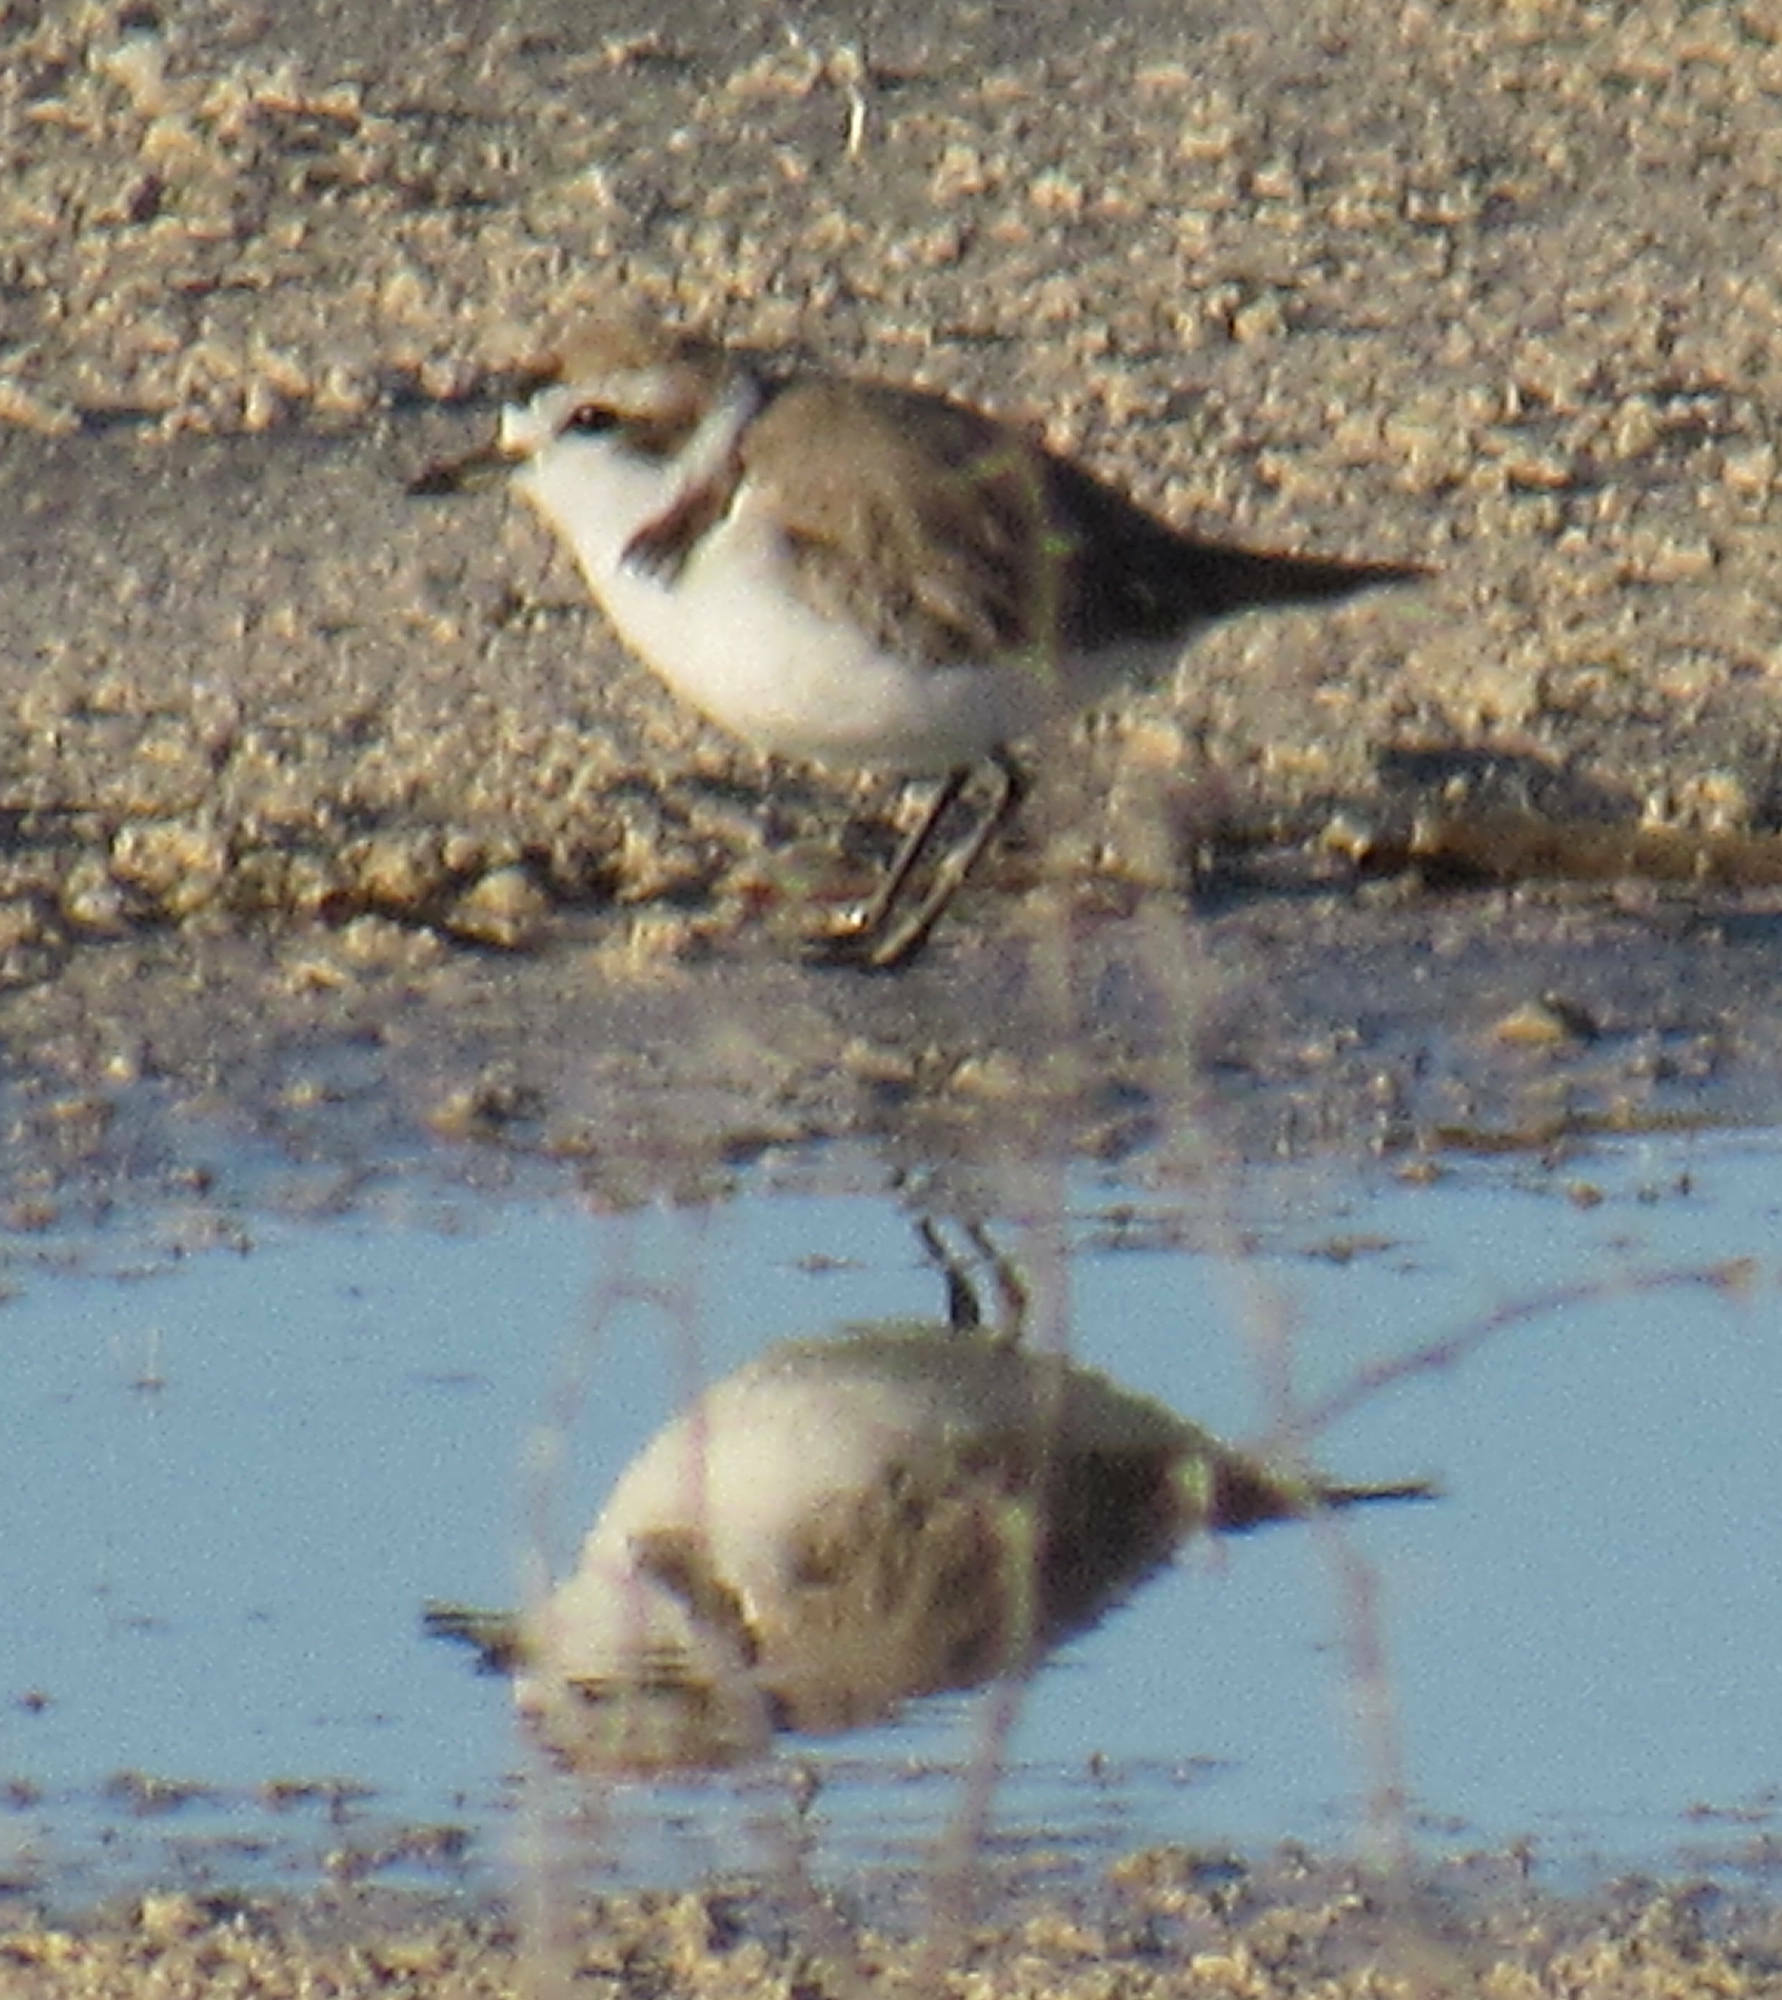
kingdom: Animalia
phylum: Chordata
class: Aves
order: Charadriiformes
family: Charadriidae
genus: Anarhynchus
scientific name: Anarhynchus
